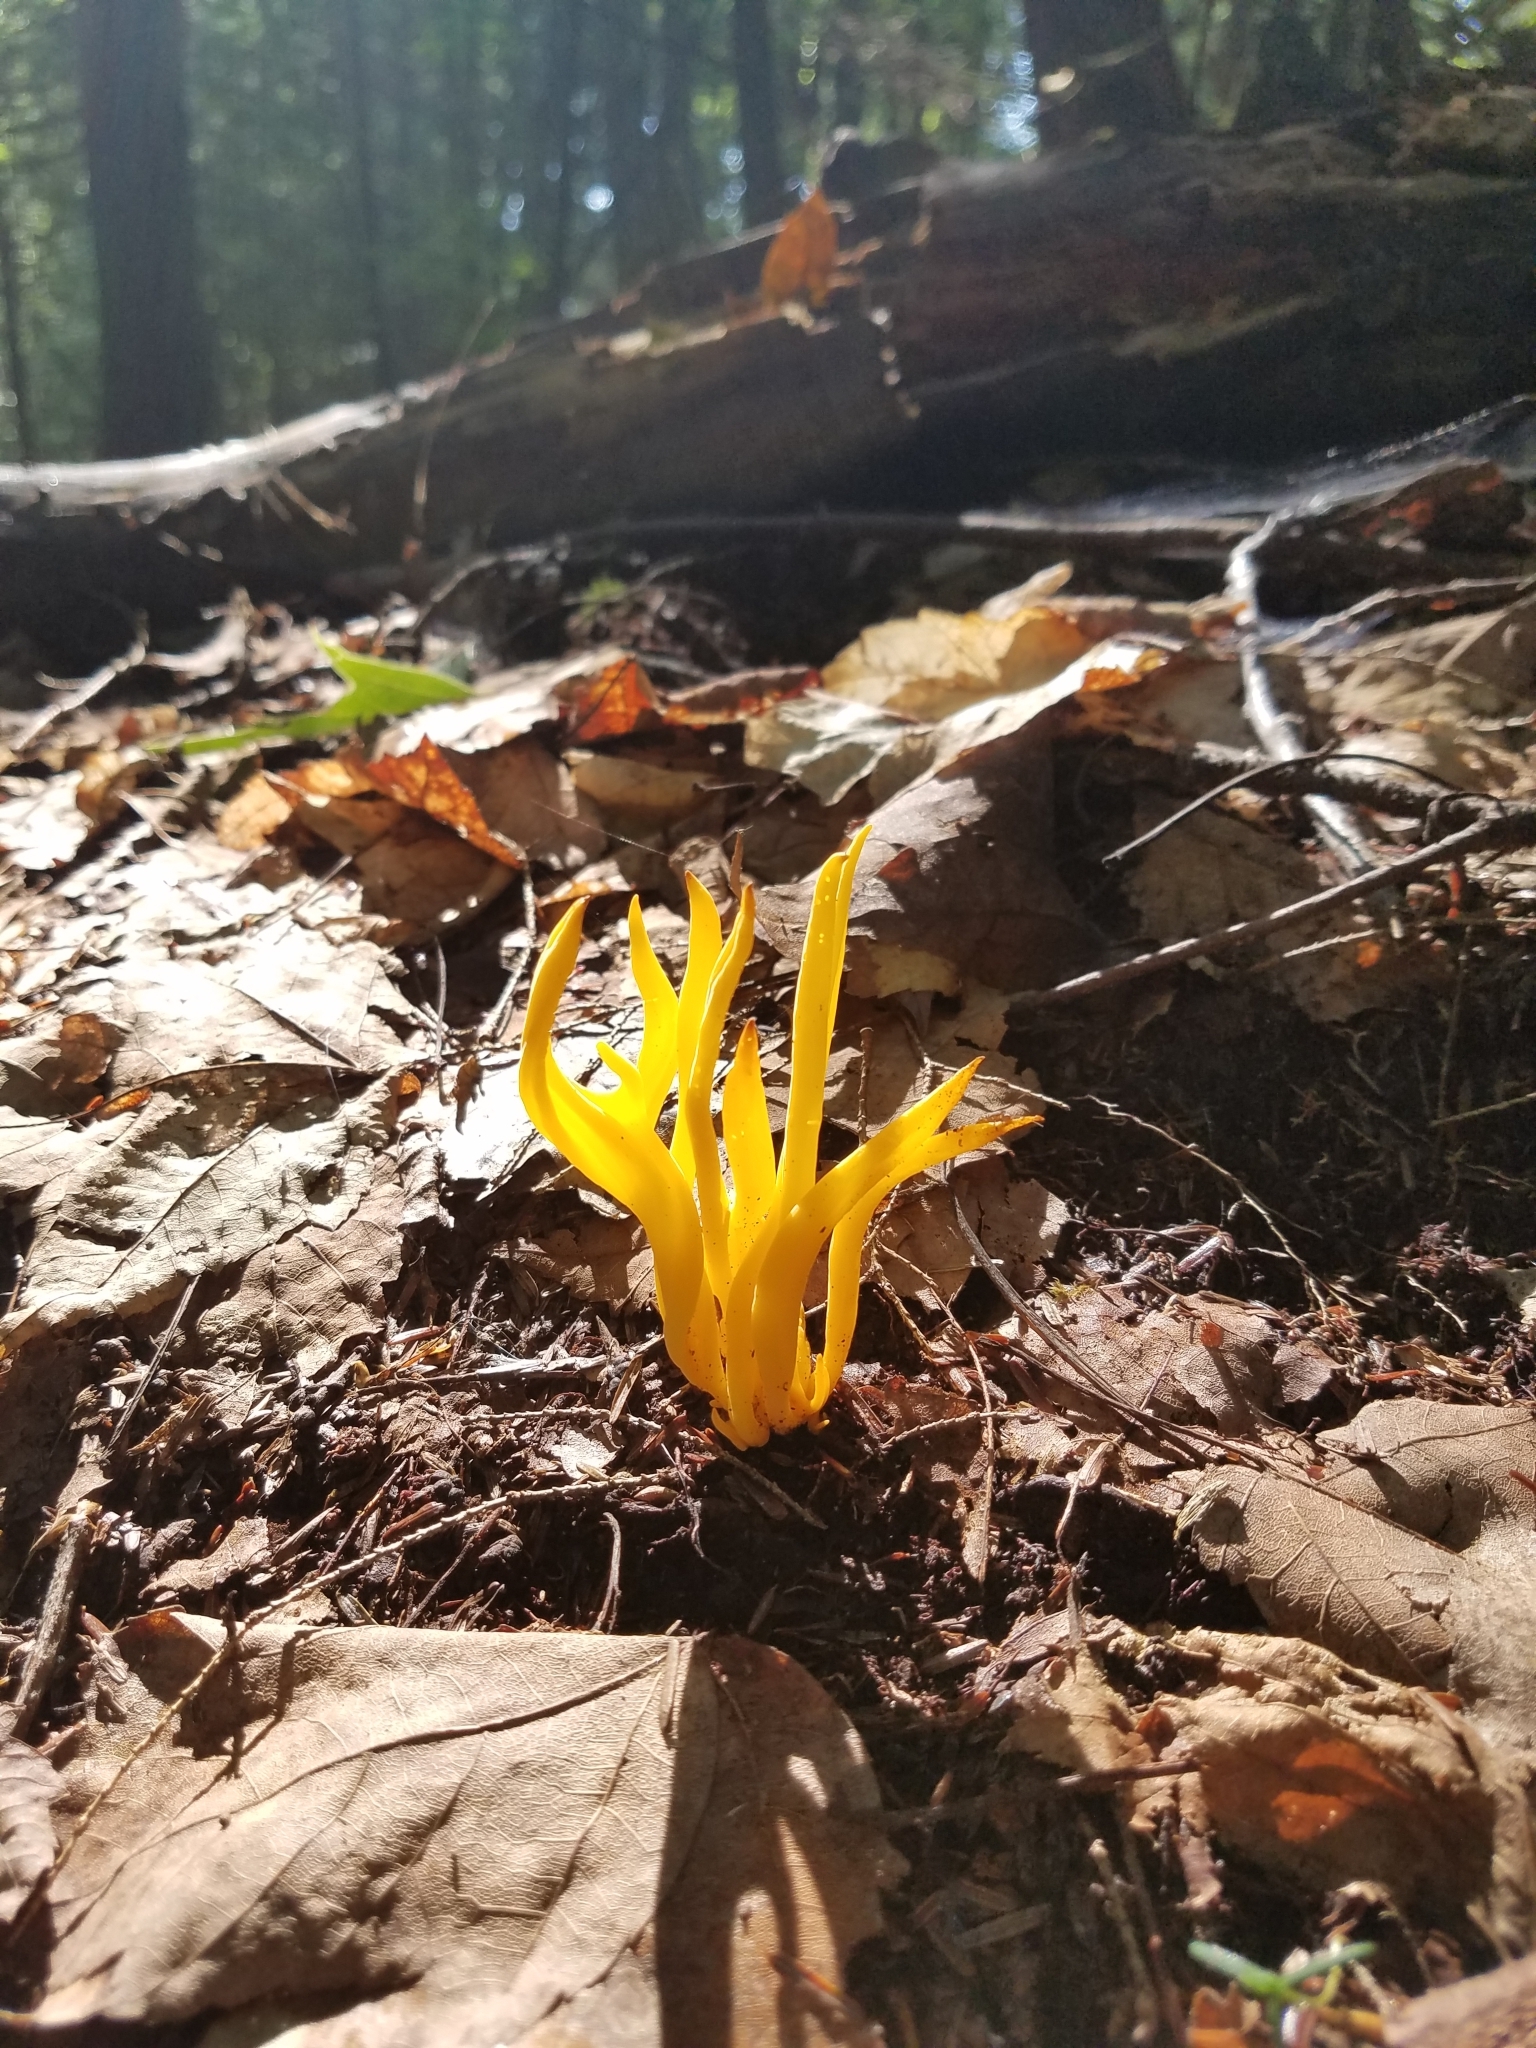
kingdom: Fungi
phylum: Basidiomycota
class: Agaricomycetes
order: Agaricales
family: Clavariaceae
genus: Clavulinopsis
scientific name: Clavulinopsis fusiformis
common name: Golden spindles
